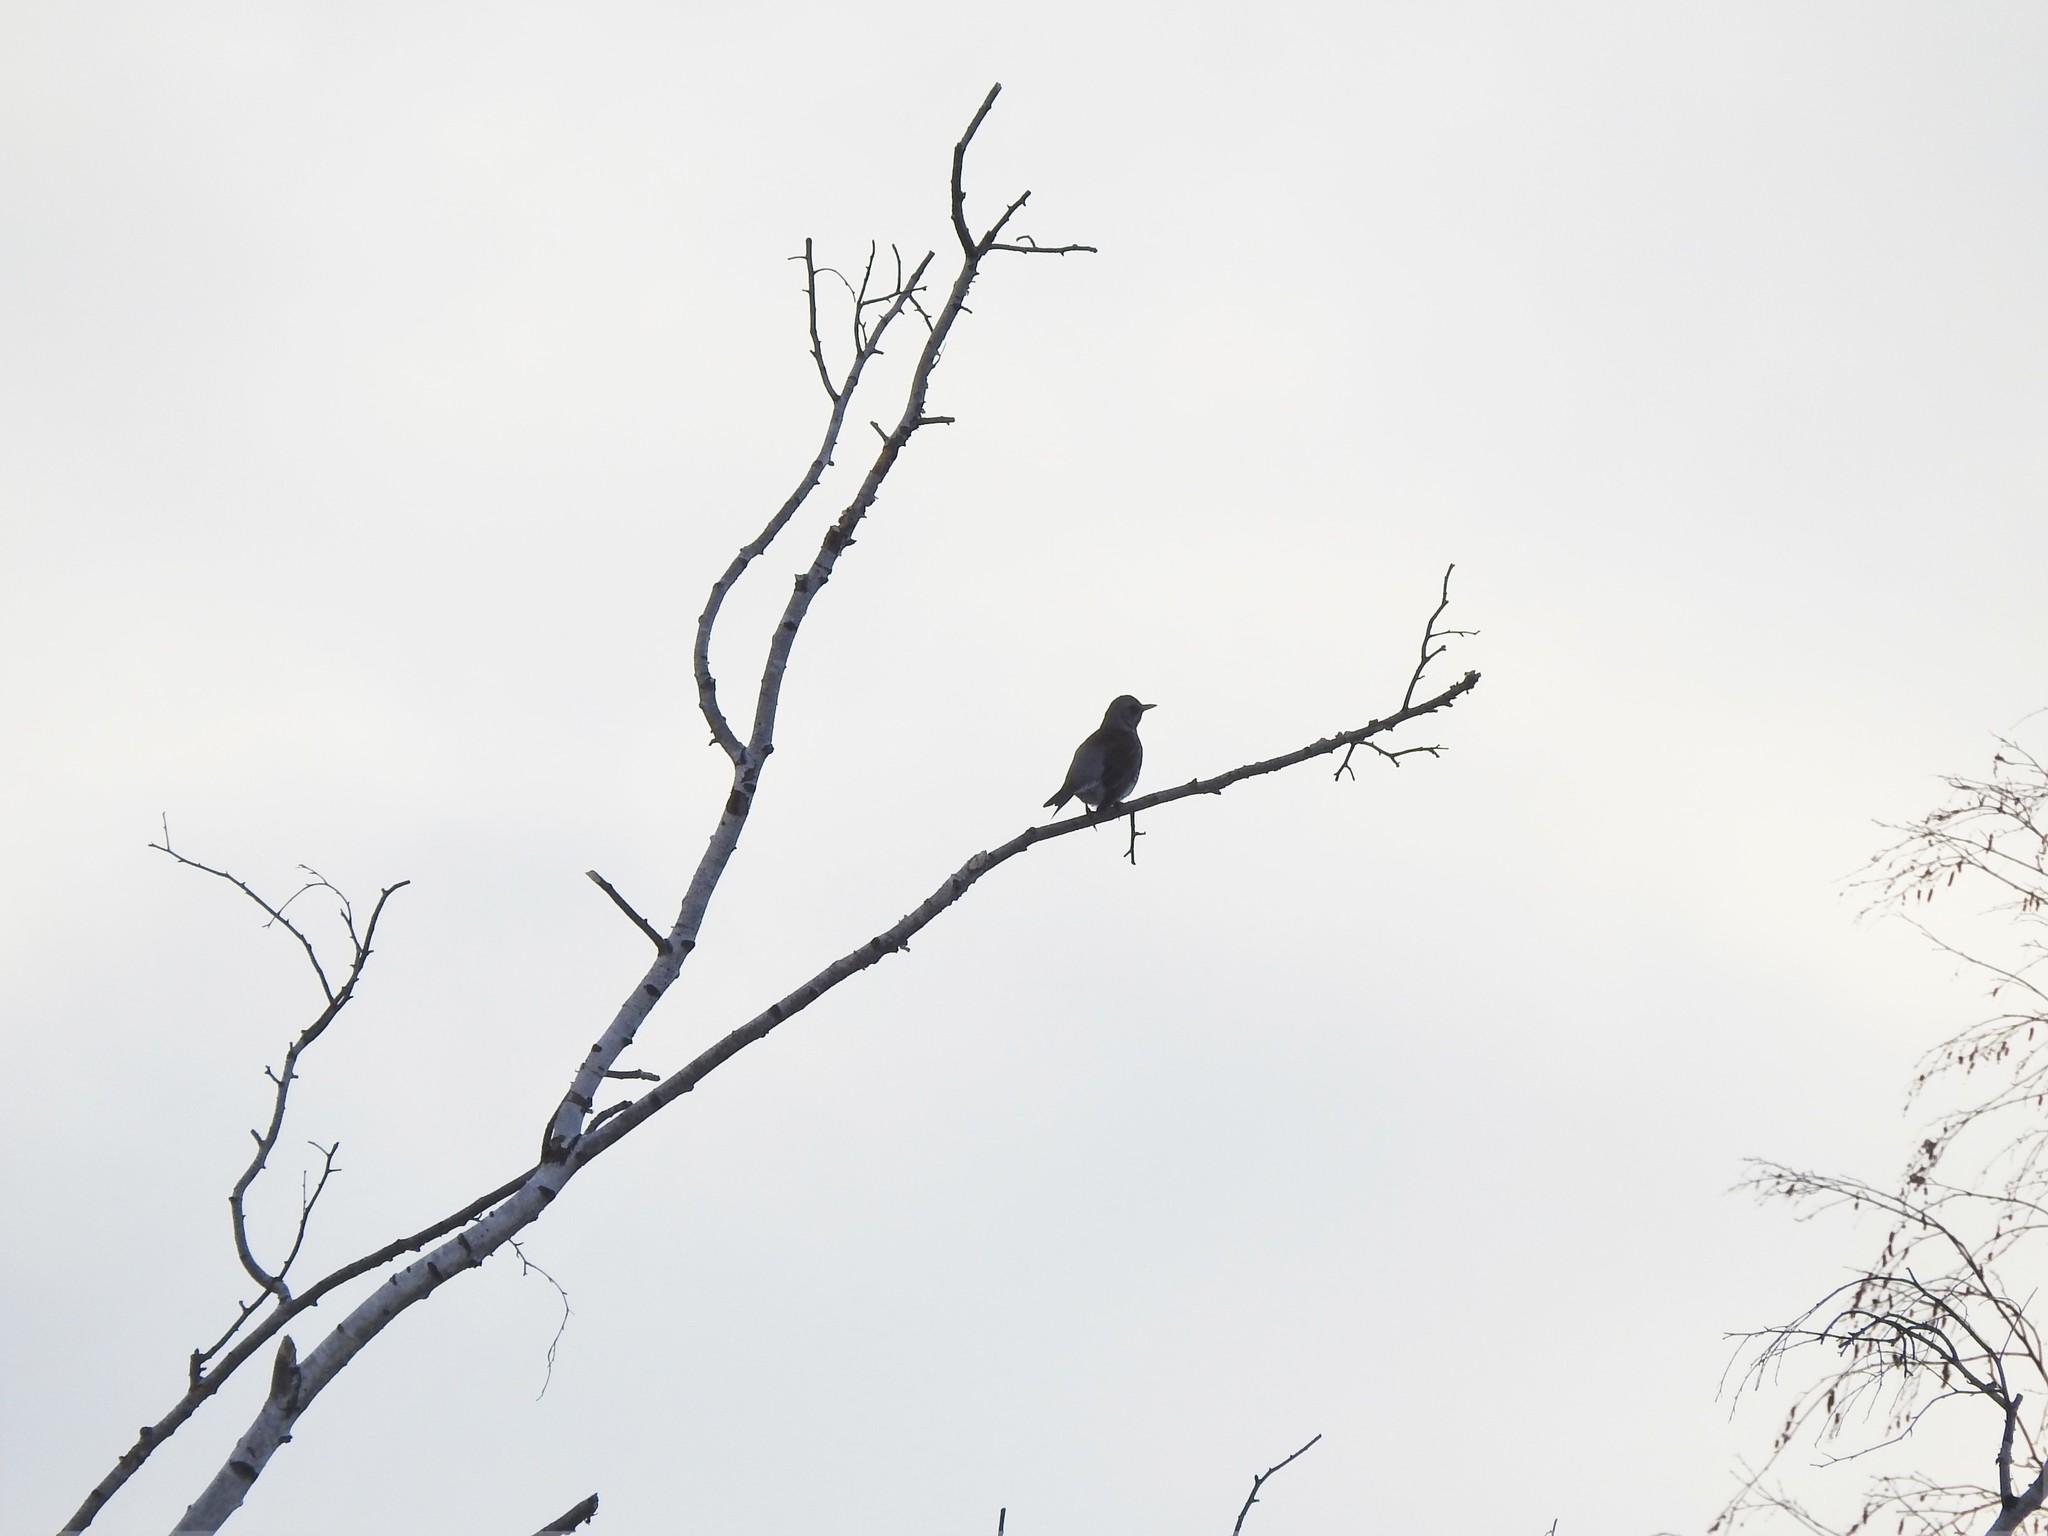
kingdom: Animalia
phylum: Chordata
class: Aves
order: Passeriformes
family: Turdidae
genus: Turdus
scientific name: Turdus pilaris
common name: Fieldfare
